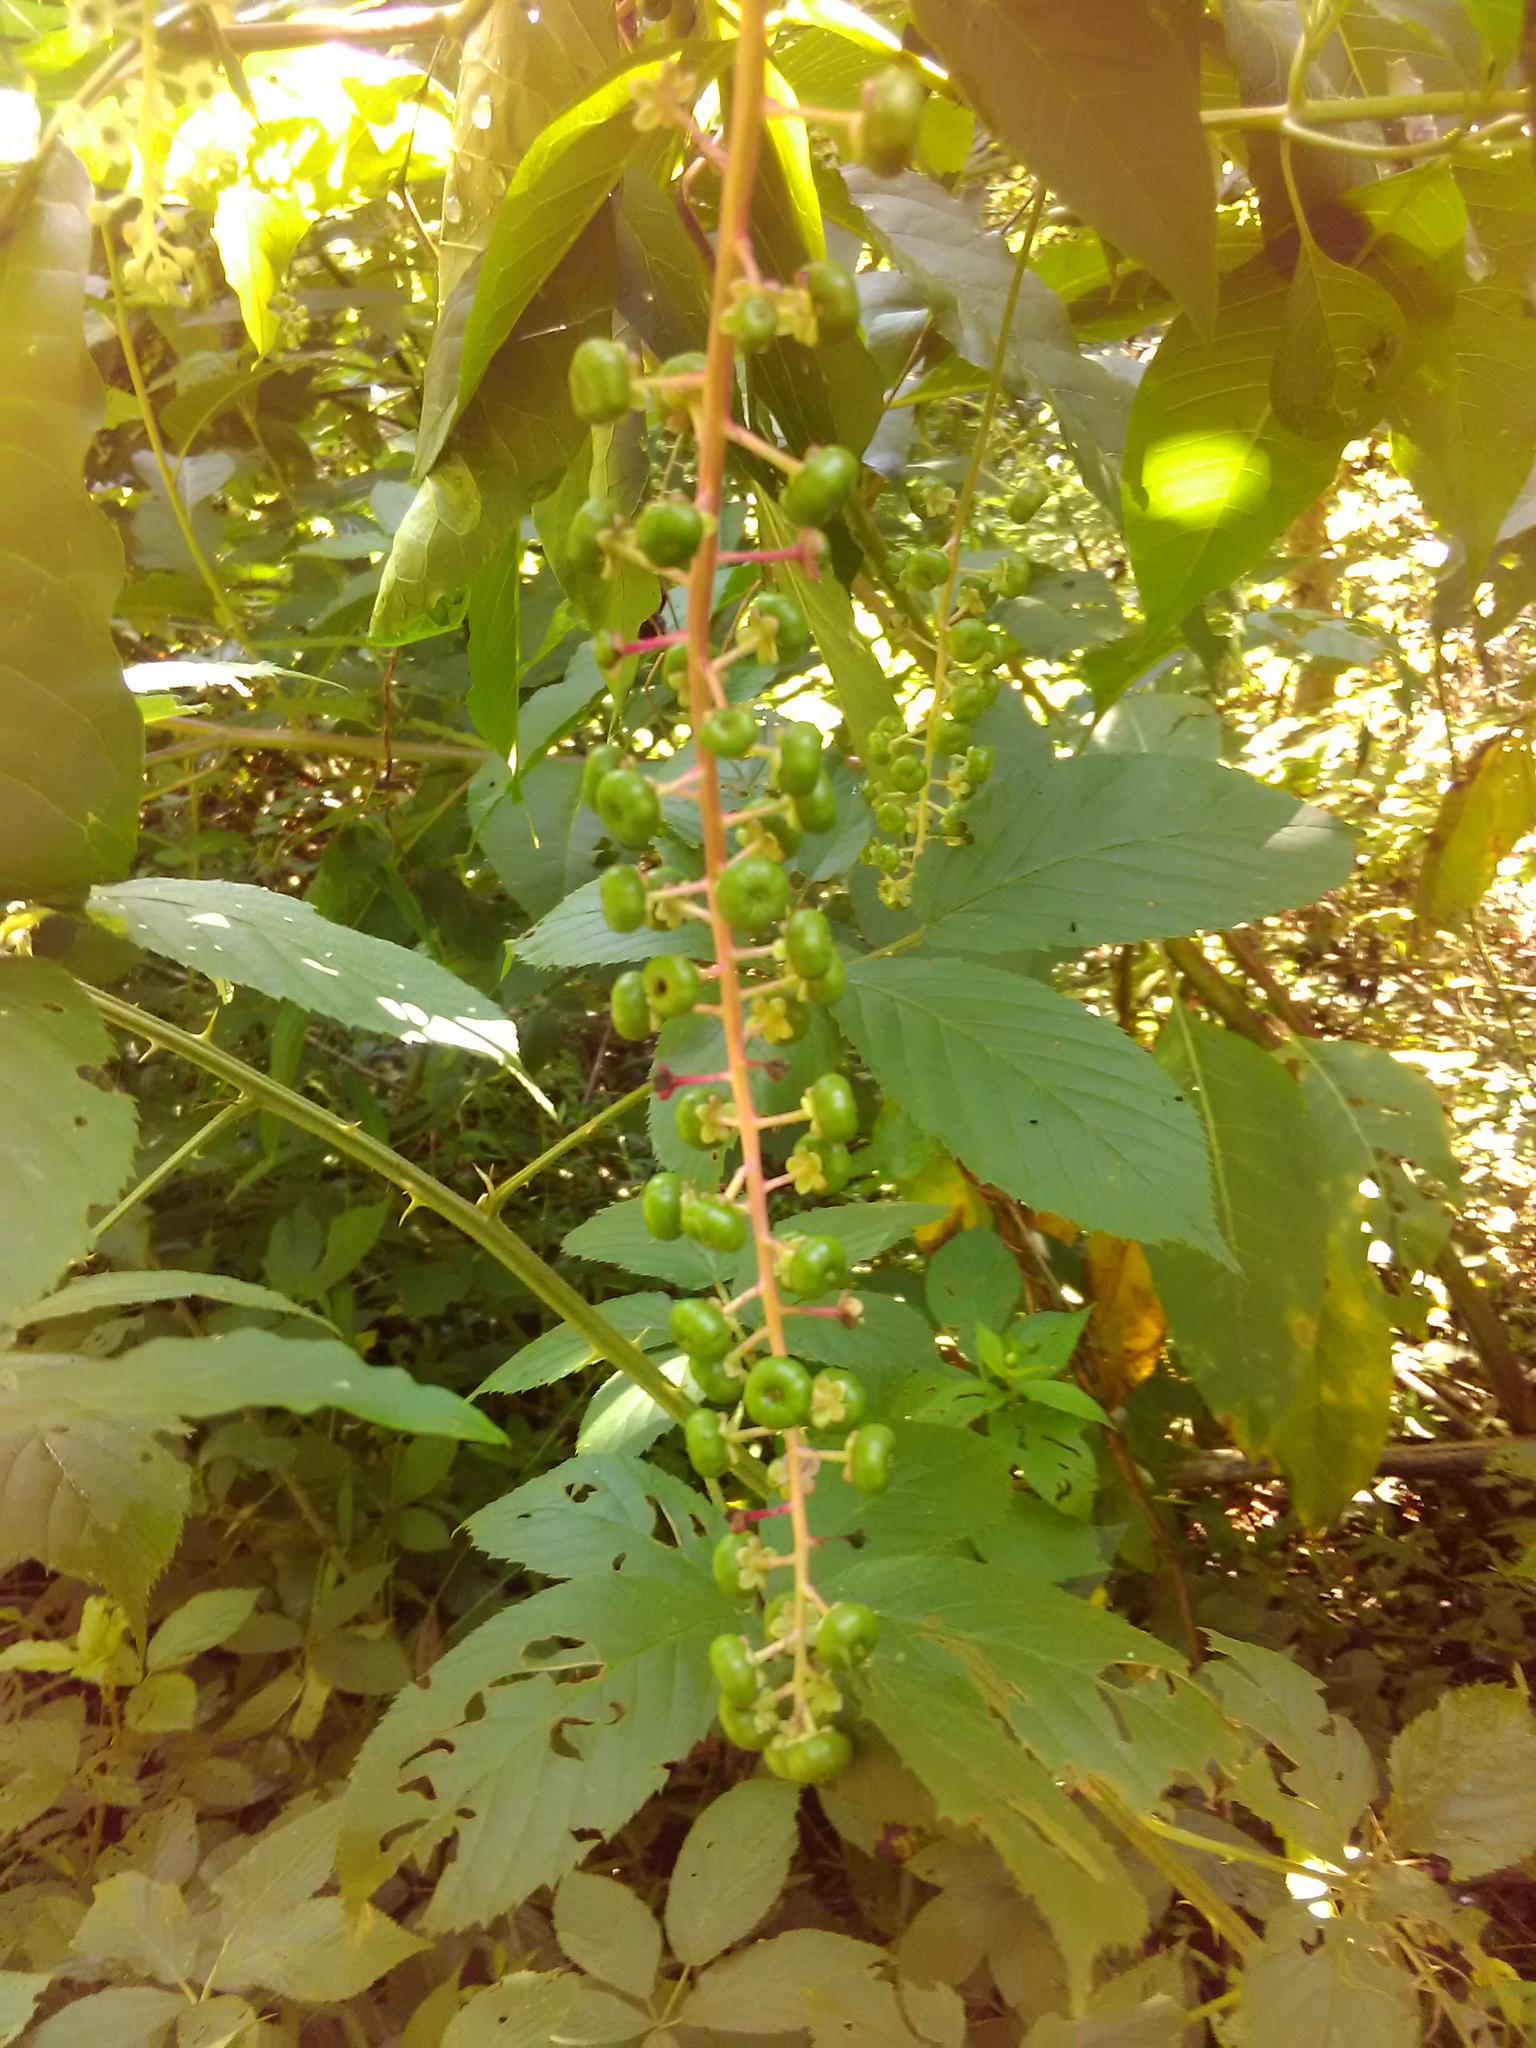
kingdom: Plantae
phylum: Tracheophyta
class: Magnoliopsida
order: Caryophyllales
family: Phytolaccaceae
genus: Phytolacca
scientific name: Phytolacca americana
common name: American pokeweed
